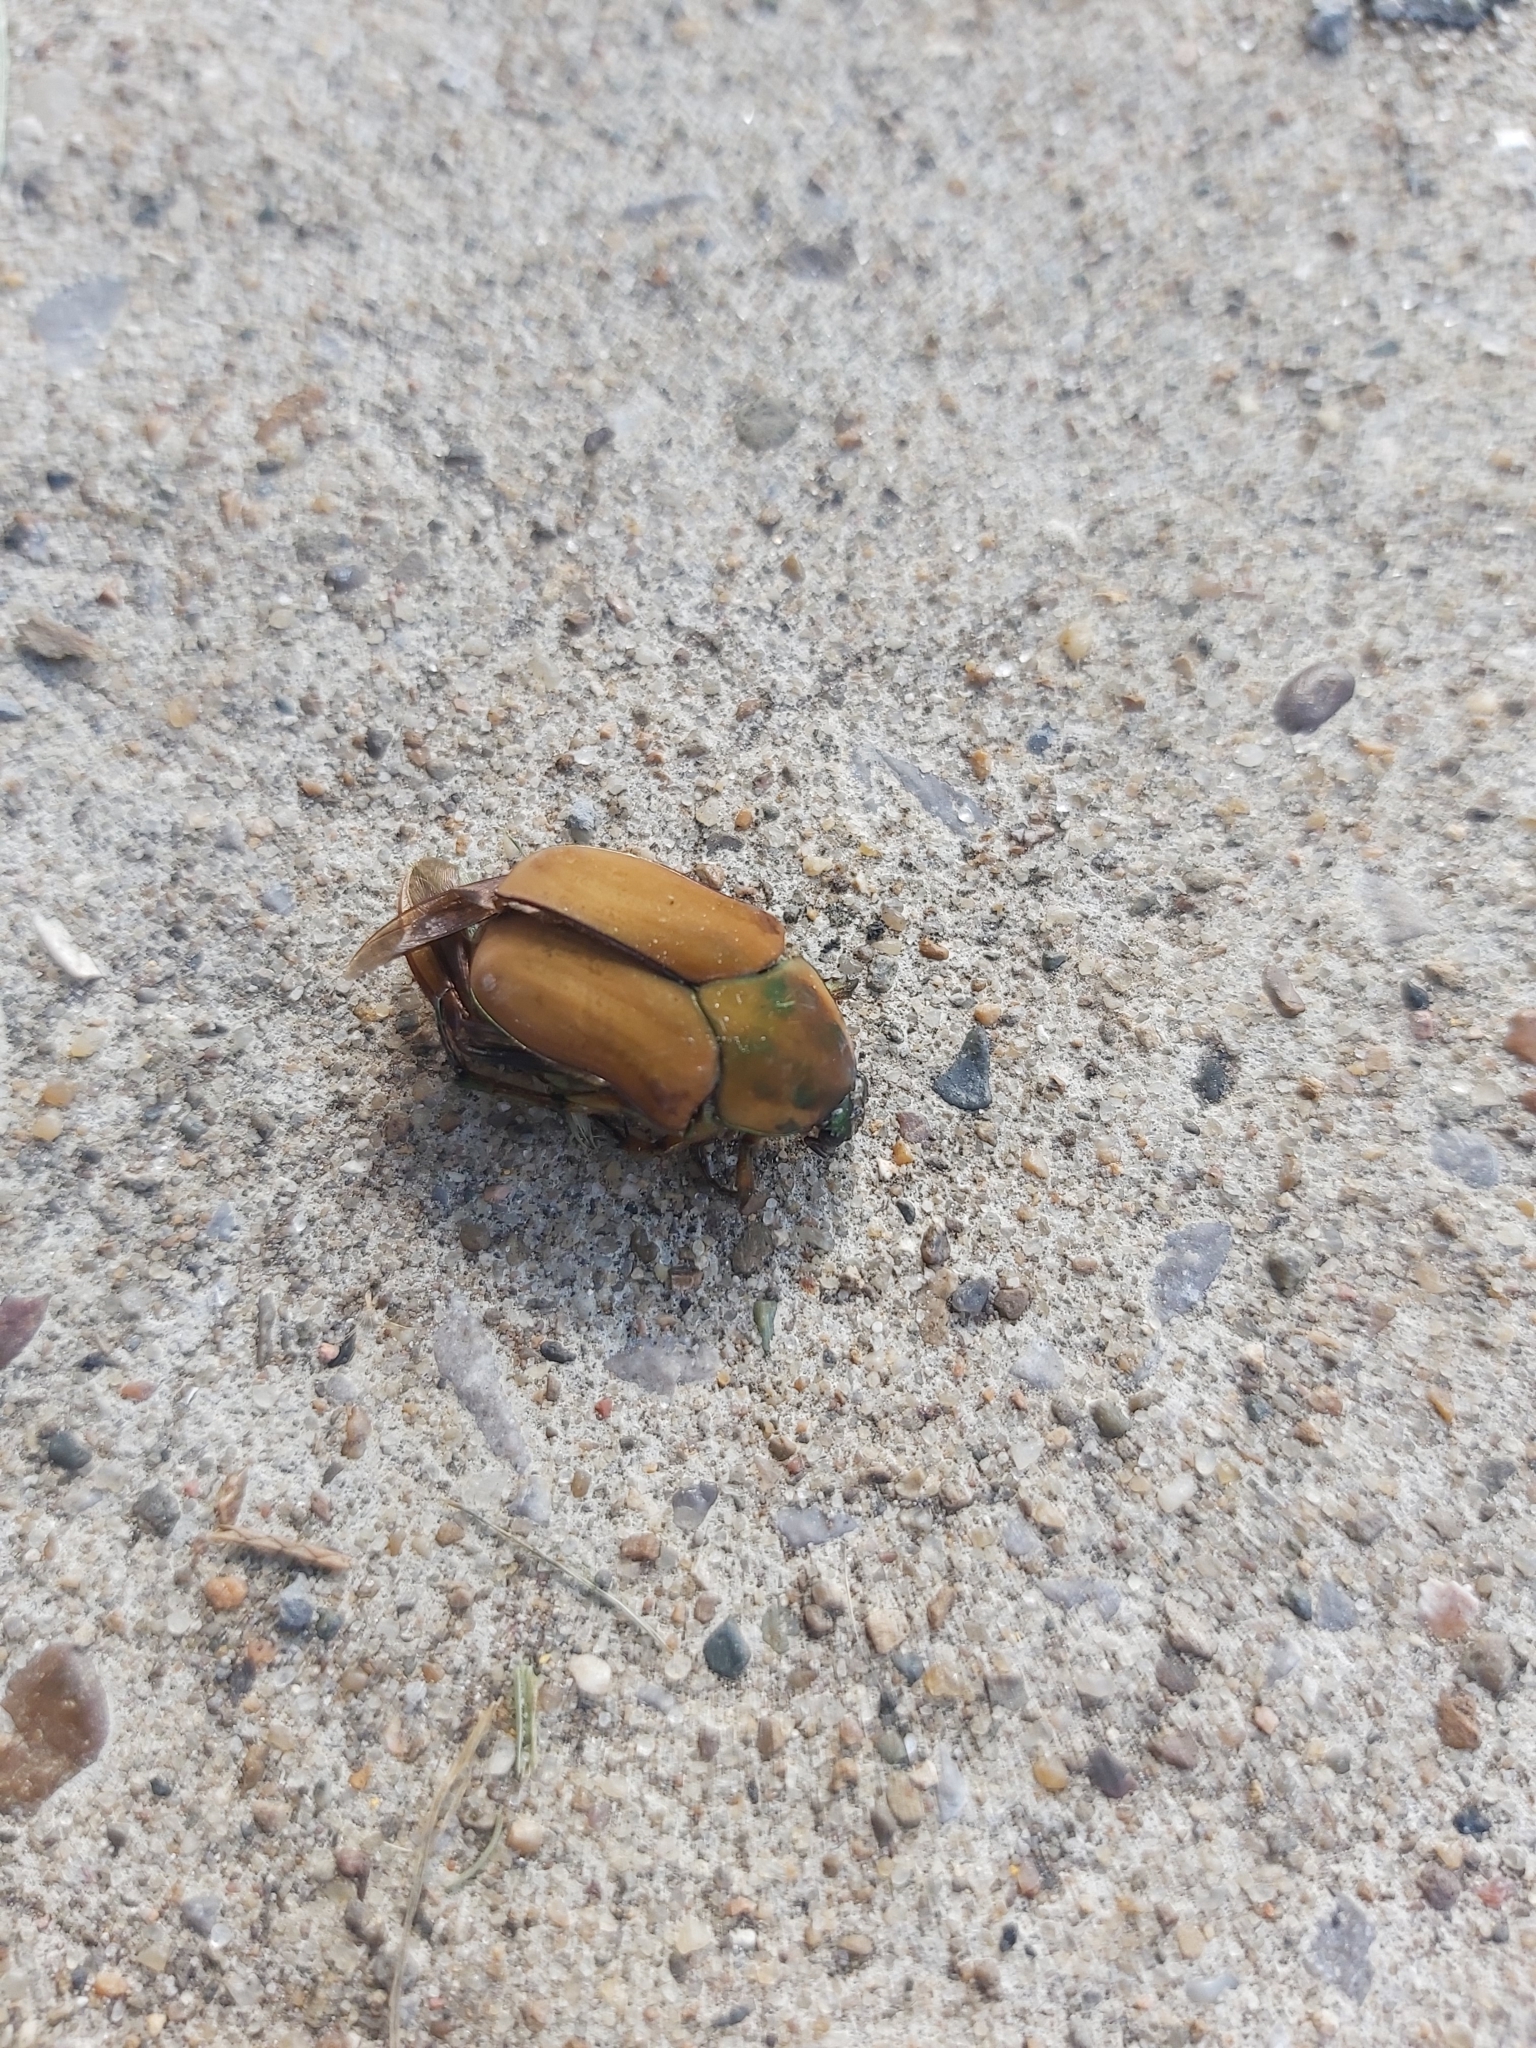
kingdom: Animalia
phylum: Arthropoda
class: Insecta
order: Coleoptera
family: Scarabaeidae
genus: Cotinis
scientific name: Cotinis nitida
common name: Common green june beetle
